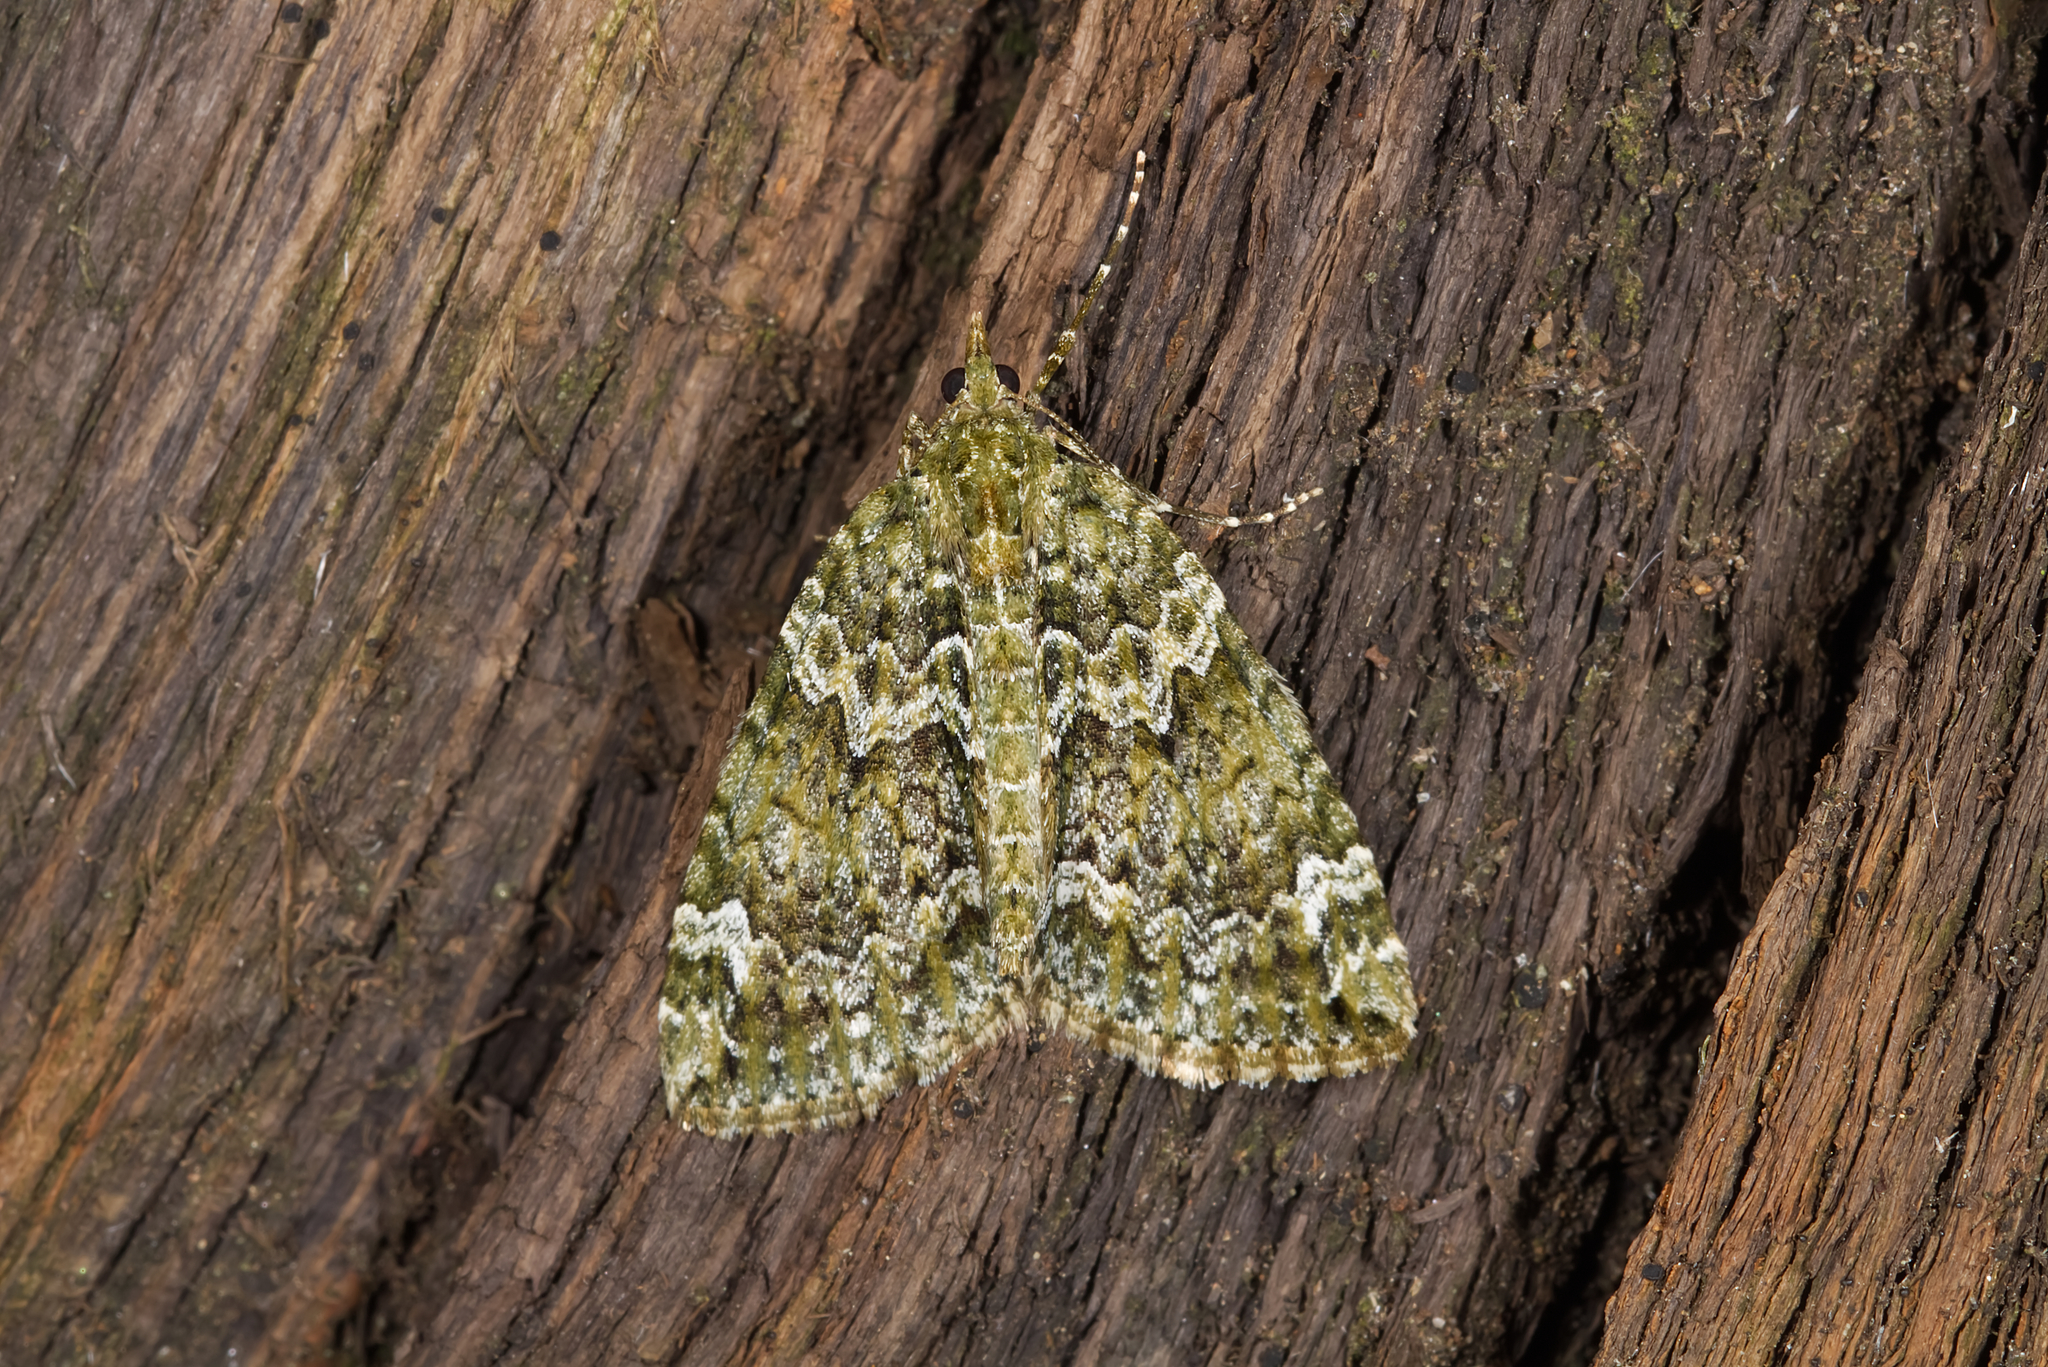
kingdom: Animalia
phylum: Arthropoda
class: Insecta
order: Lepidoptera
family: Geometridae
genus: Chloroclysta
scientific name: Chloroclysta siterata
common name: Red-green carpet
